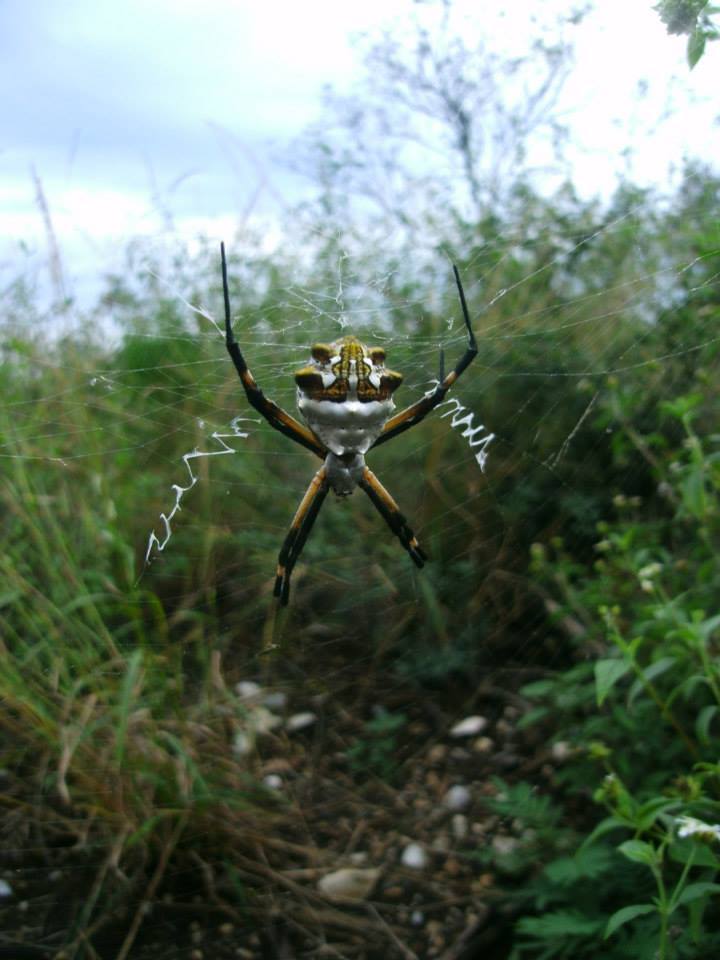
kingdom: Animalia
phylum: Arthropoda
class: Arachnida
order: Araneae
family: Araneidae
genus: Argiope
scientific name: Argiope argentata
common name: Orb weavers
